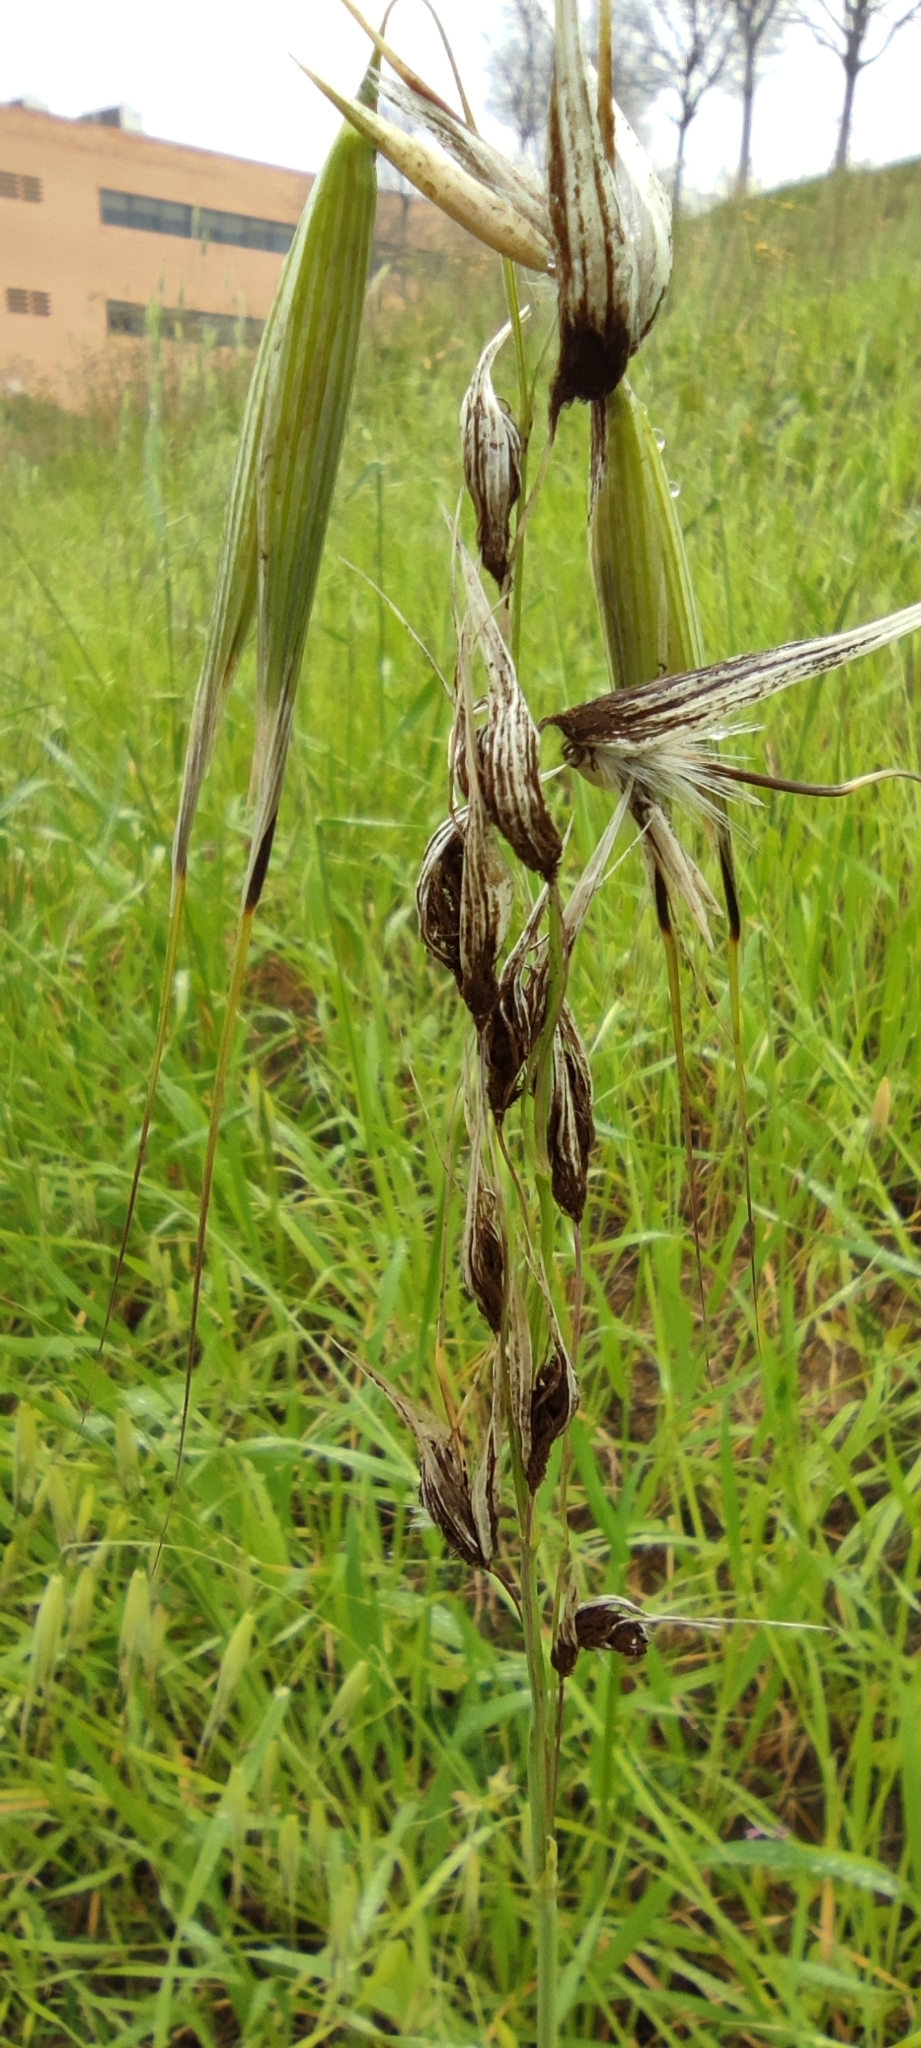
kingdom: Fungi
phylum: Basidiomycota
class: Ustilaginomycetes
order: Ustilaginales
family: Ustilaginaceae
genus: Ustilago
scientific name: Ustilago avenae
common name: Loose smut of oats & oat grass
